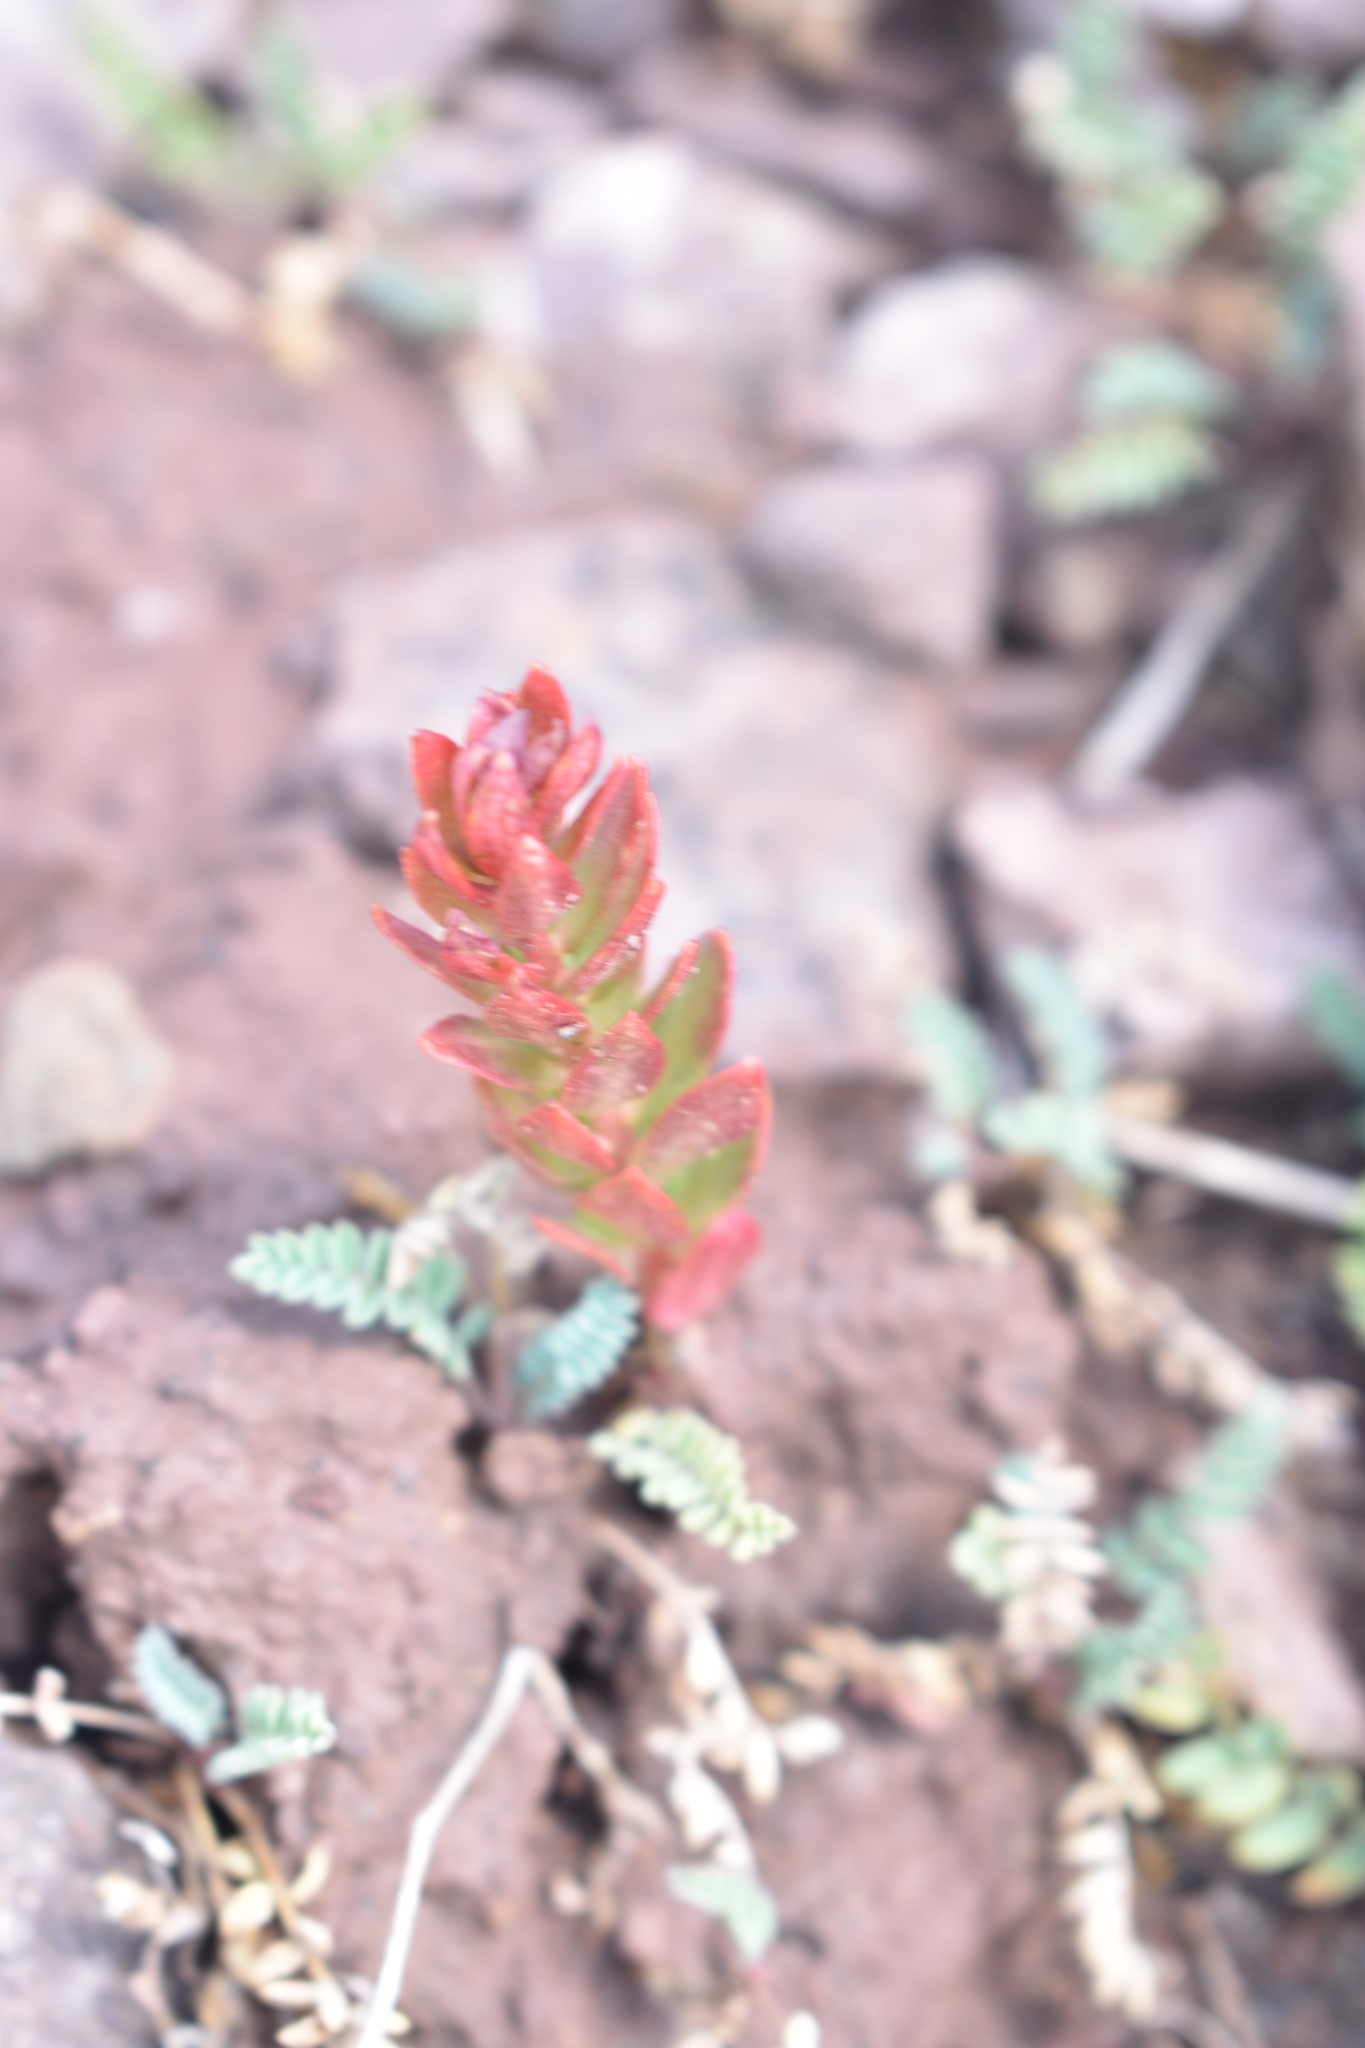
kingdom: Plantae
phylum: Tracheophyta
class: Magnoliopsida
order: Saxifragales
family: Crassulaceae
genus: Rhodiola
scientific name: Rhodiola integrifolia
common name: Western roseroot
